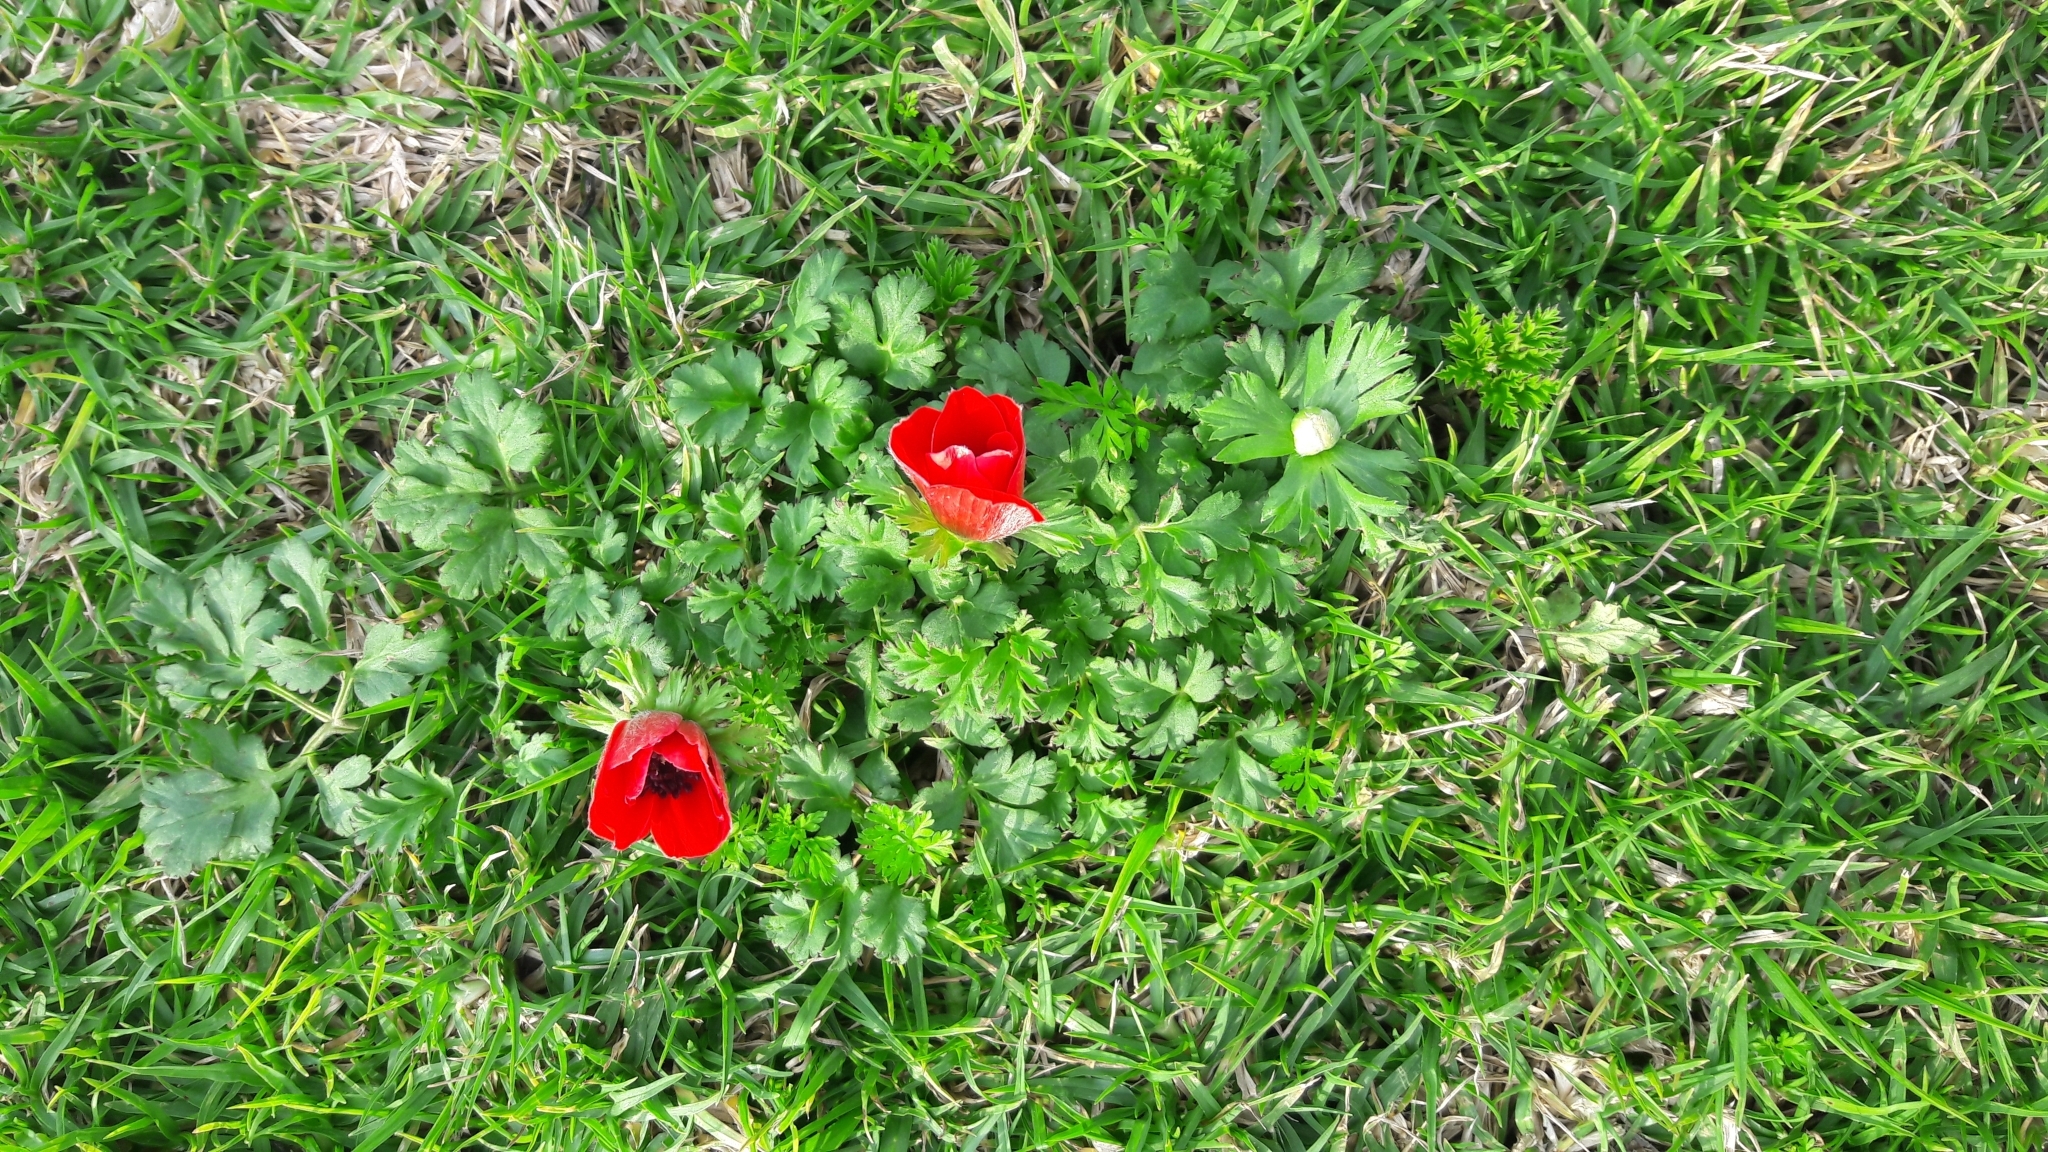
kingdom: Plantae
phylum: Tracheophyta
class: Magnoliopsida
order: Ranunculales
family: Ranunculaceae
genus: Anemone
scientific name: Anemone coronaria
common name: Poppy anemone
